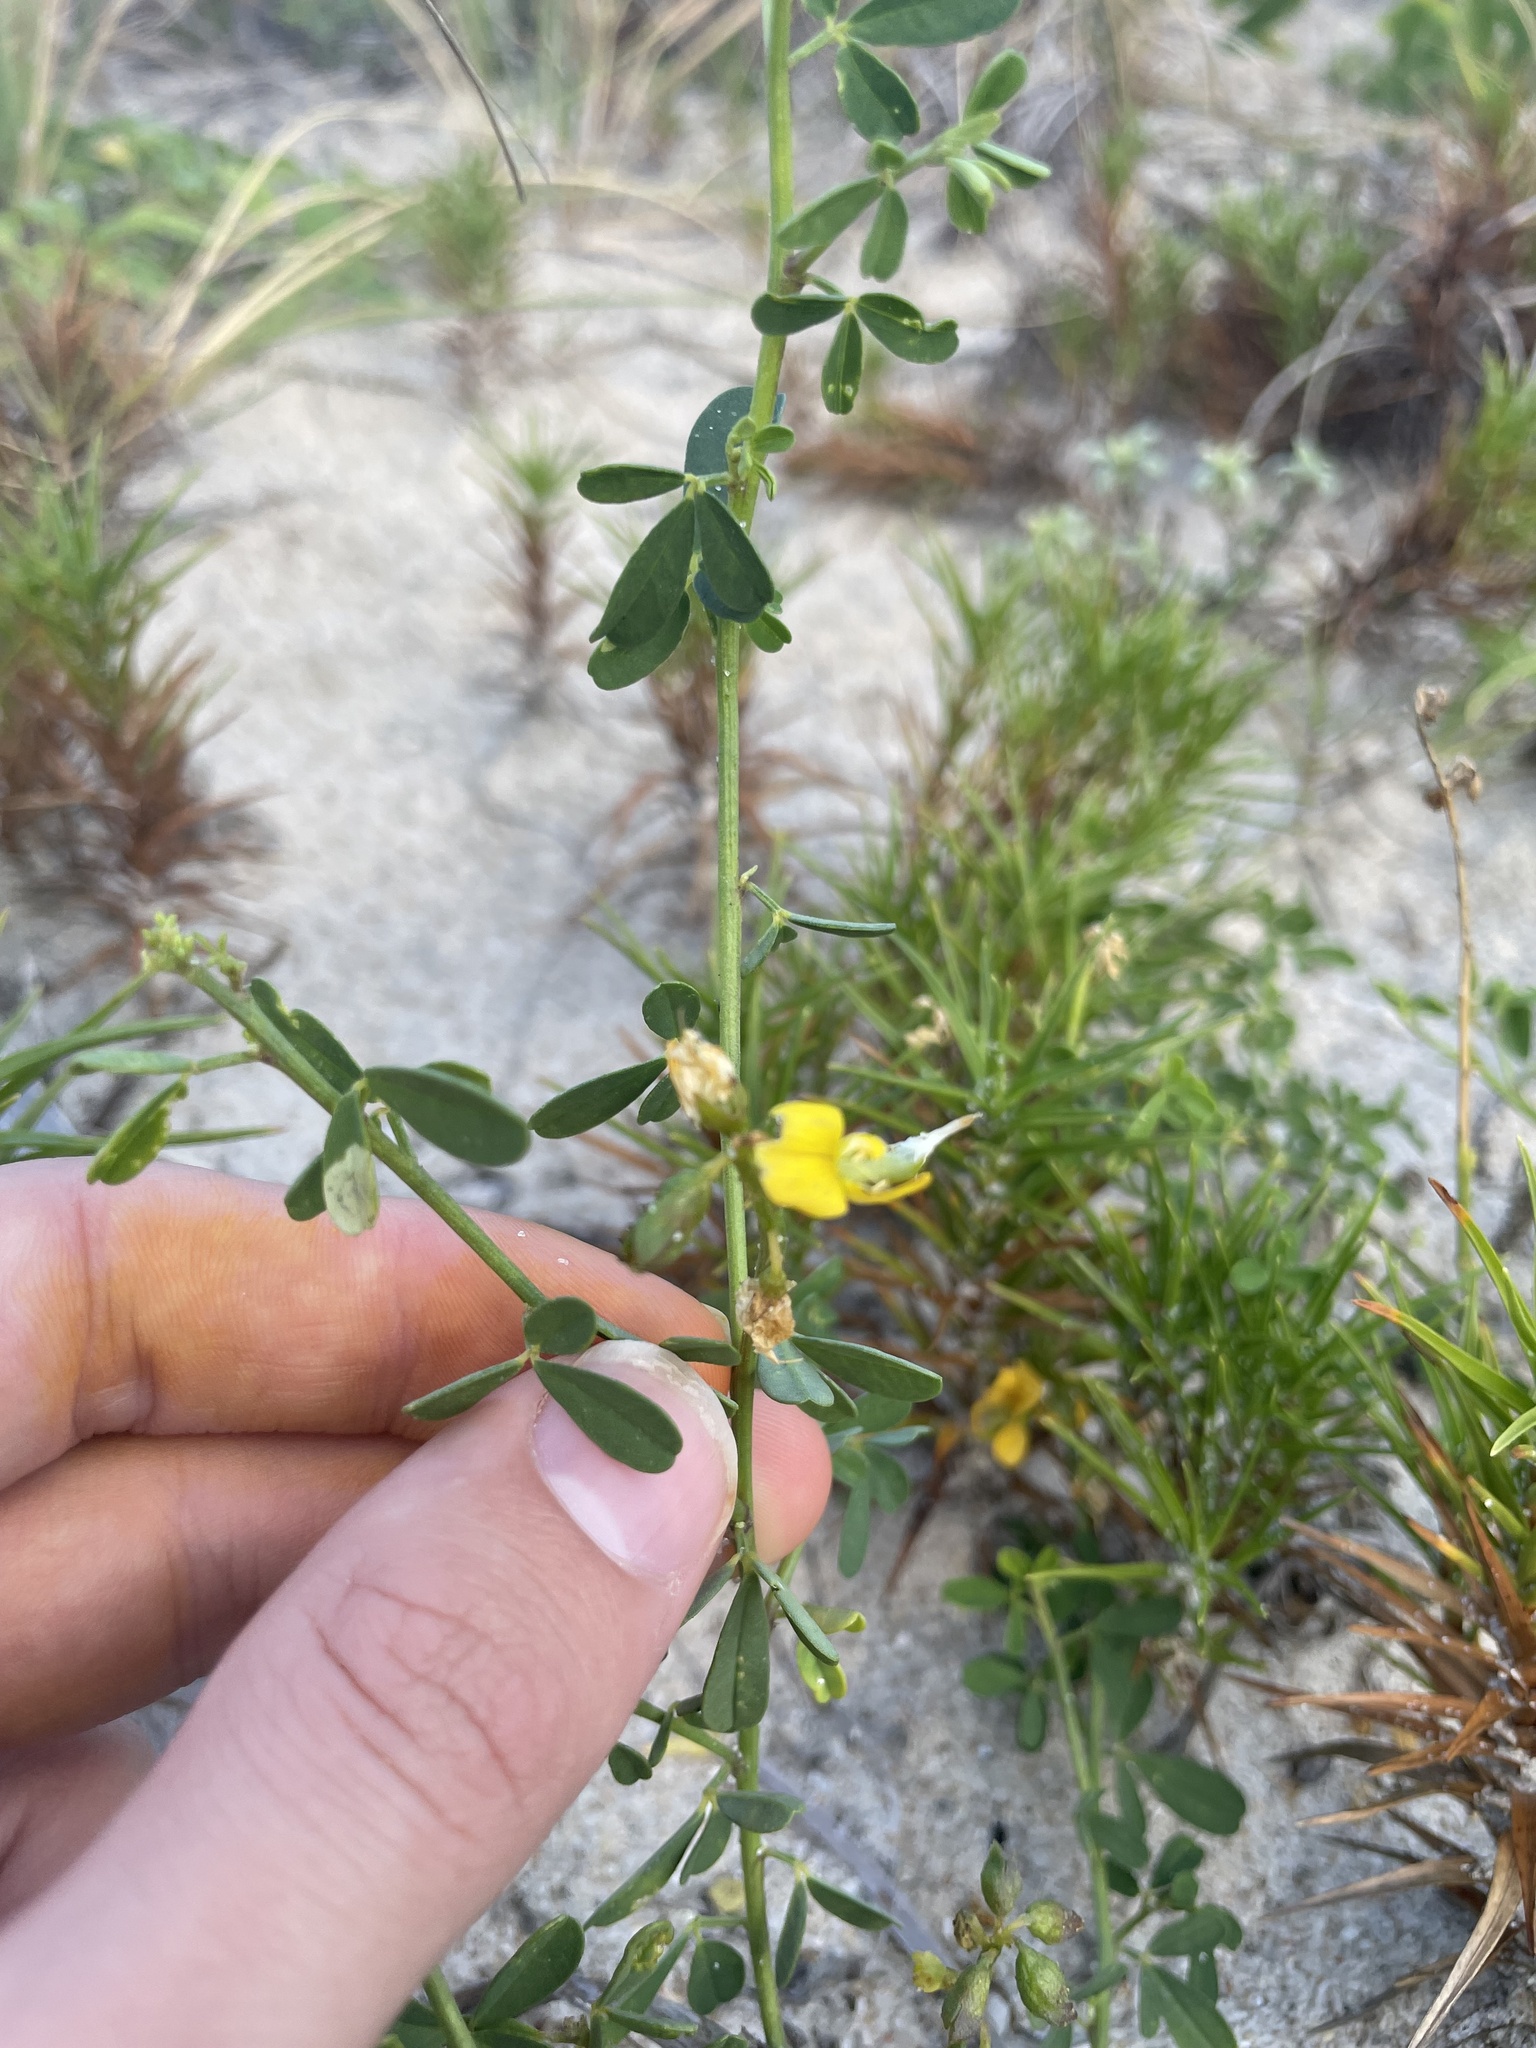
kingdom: Plantae
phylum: Tracheophyta
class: Magnoliopsida
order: Fabales
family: Fabaceae
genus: Crotalaria
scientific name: Crotalaria pumila
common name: Low rattlebox
